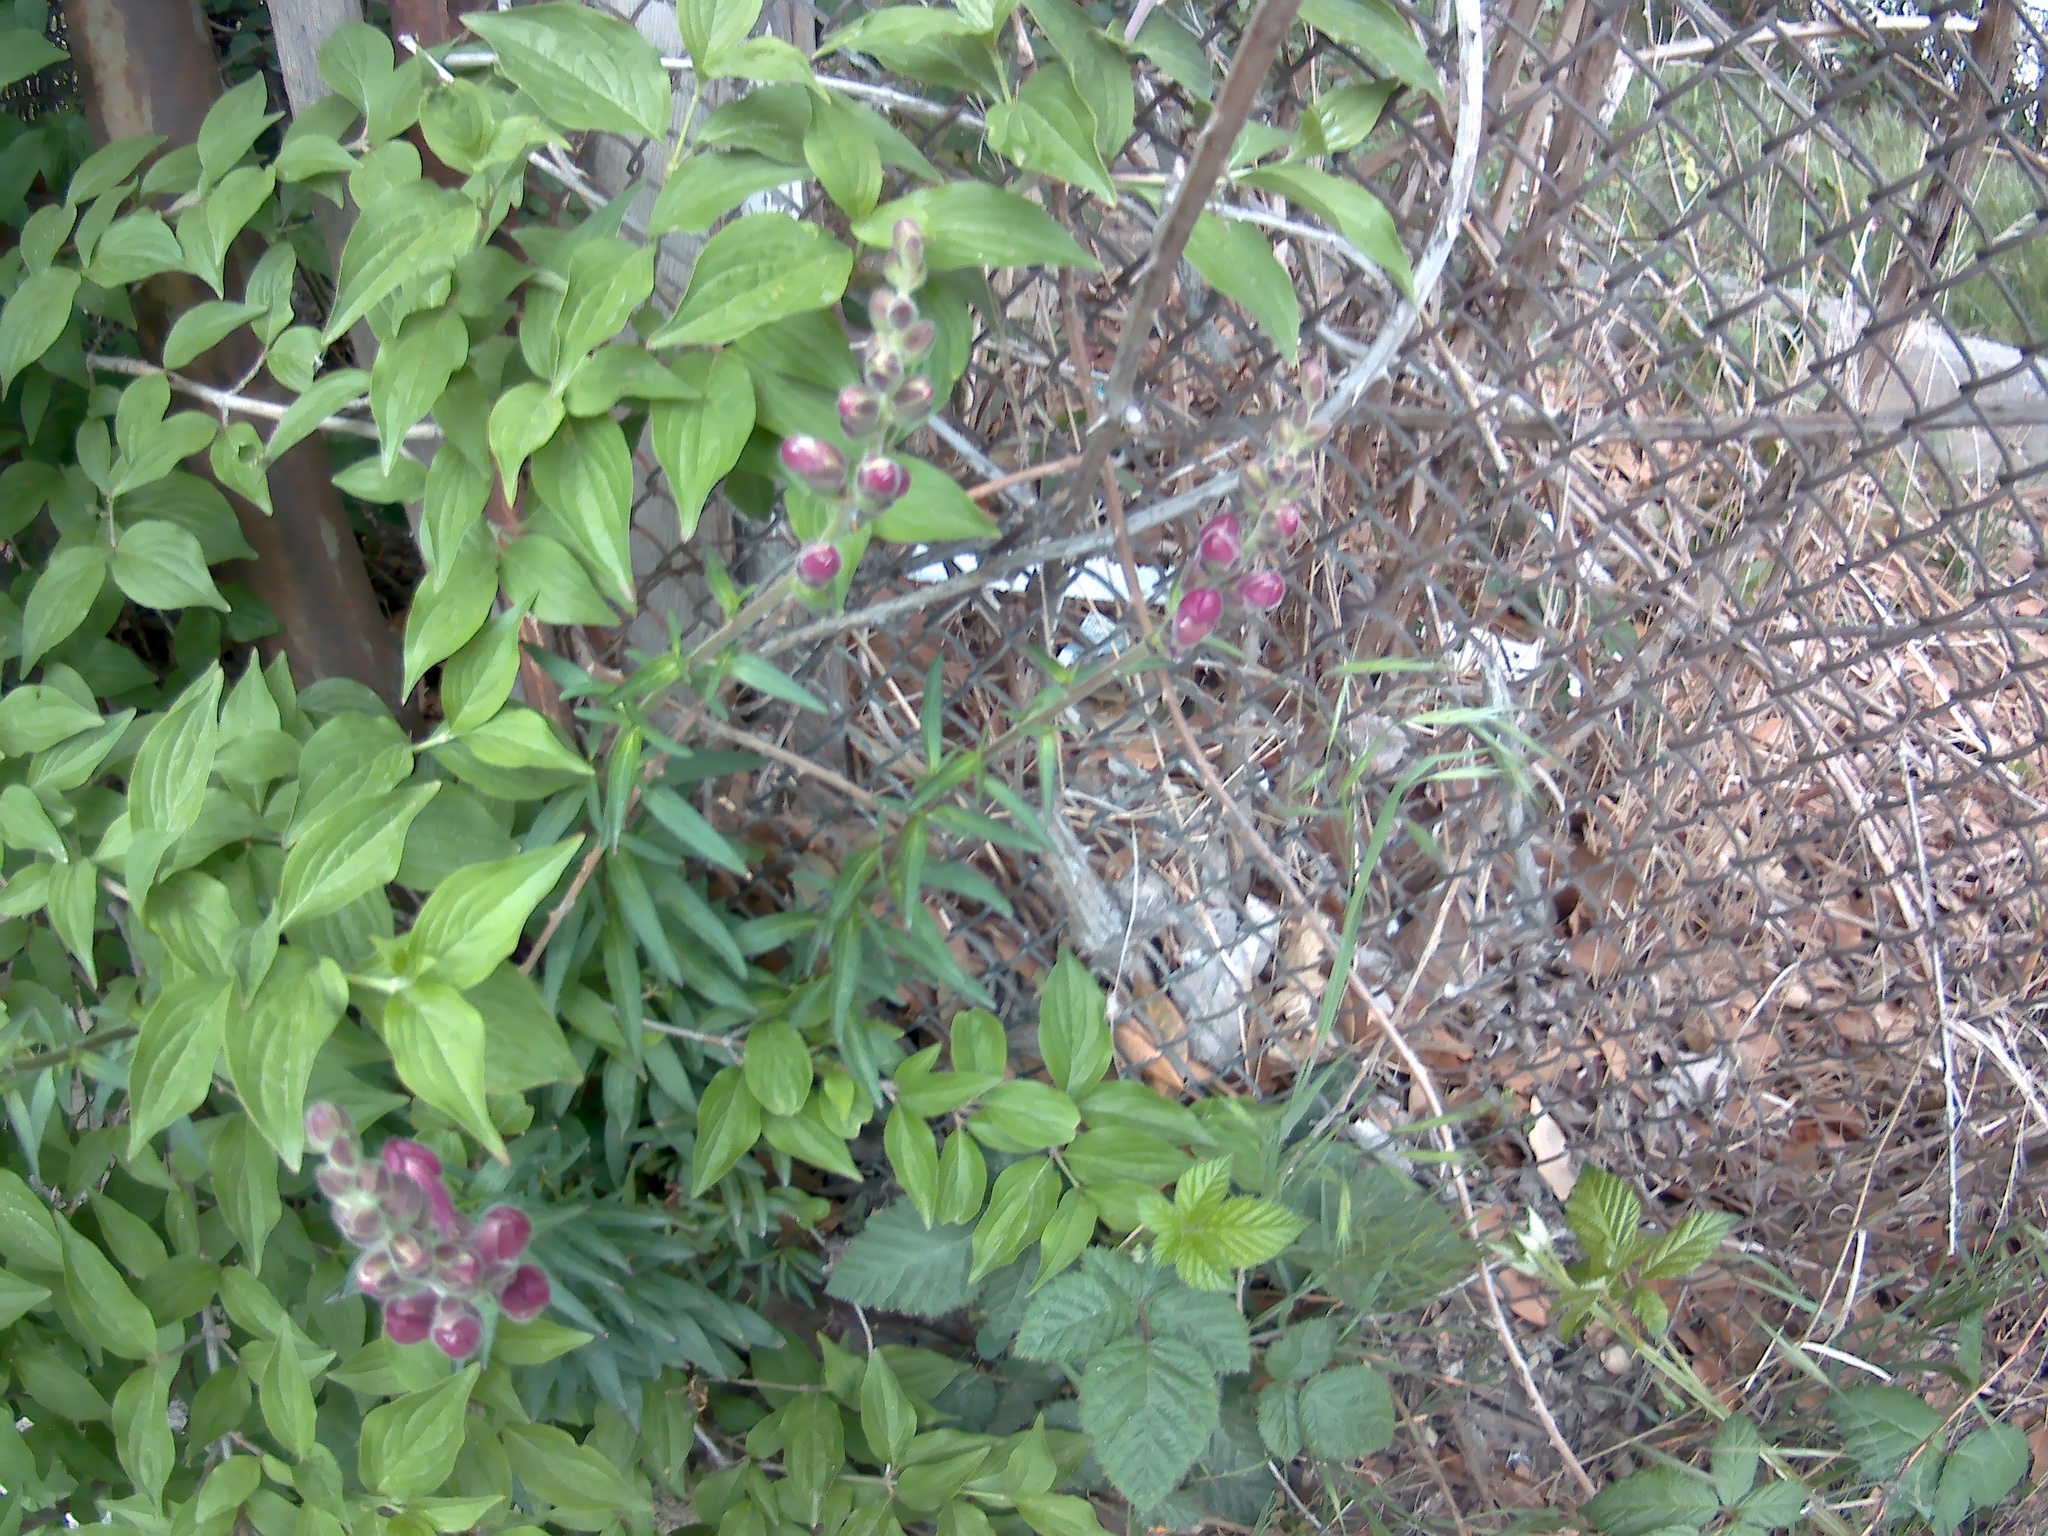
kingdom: Plantae
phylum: Tracheophyta
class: Magnoliopsida
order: Lamiales
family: Plantaginaceae
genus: Antirrhinum
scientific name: Antirrhinum majus
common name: Snapdragon
